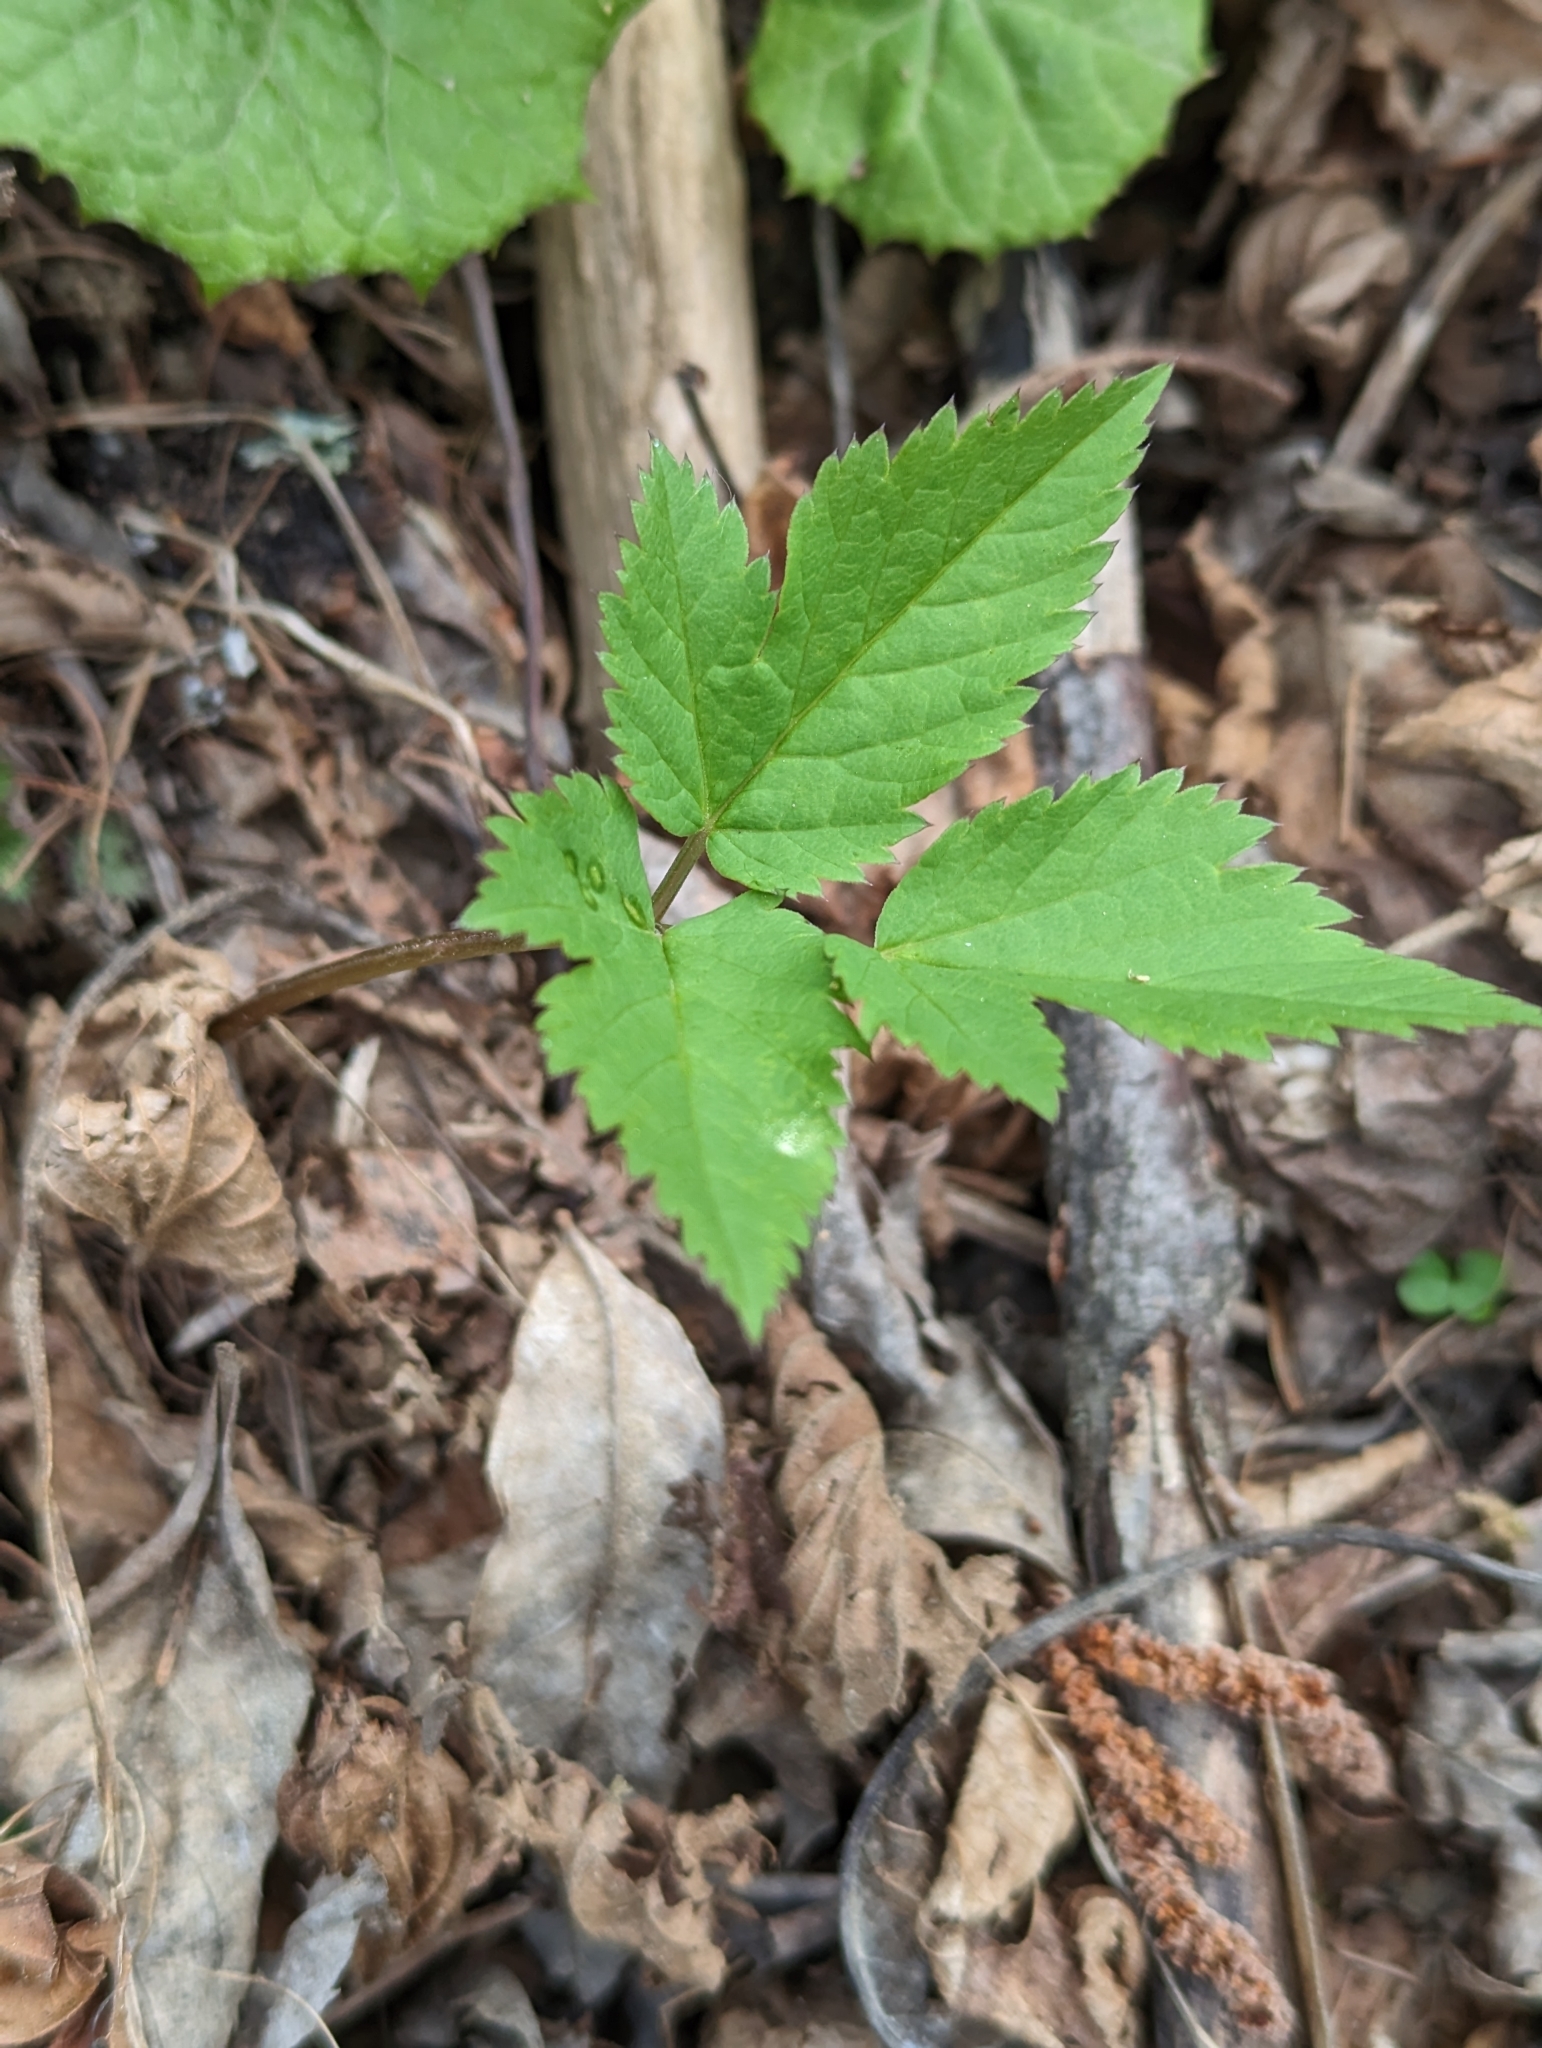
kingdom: Plantae
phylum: Tracheophyta
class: Magnoliopsida
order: Apiales
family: Apiaceae
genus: Aegopodium
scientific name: Aegopodium podagraria
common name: Ground-elder
